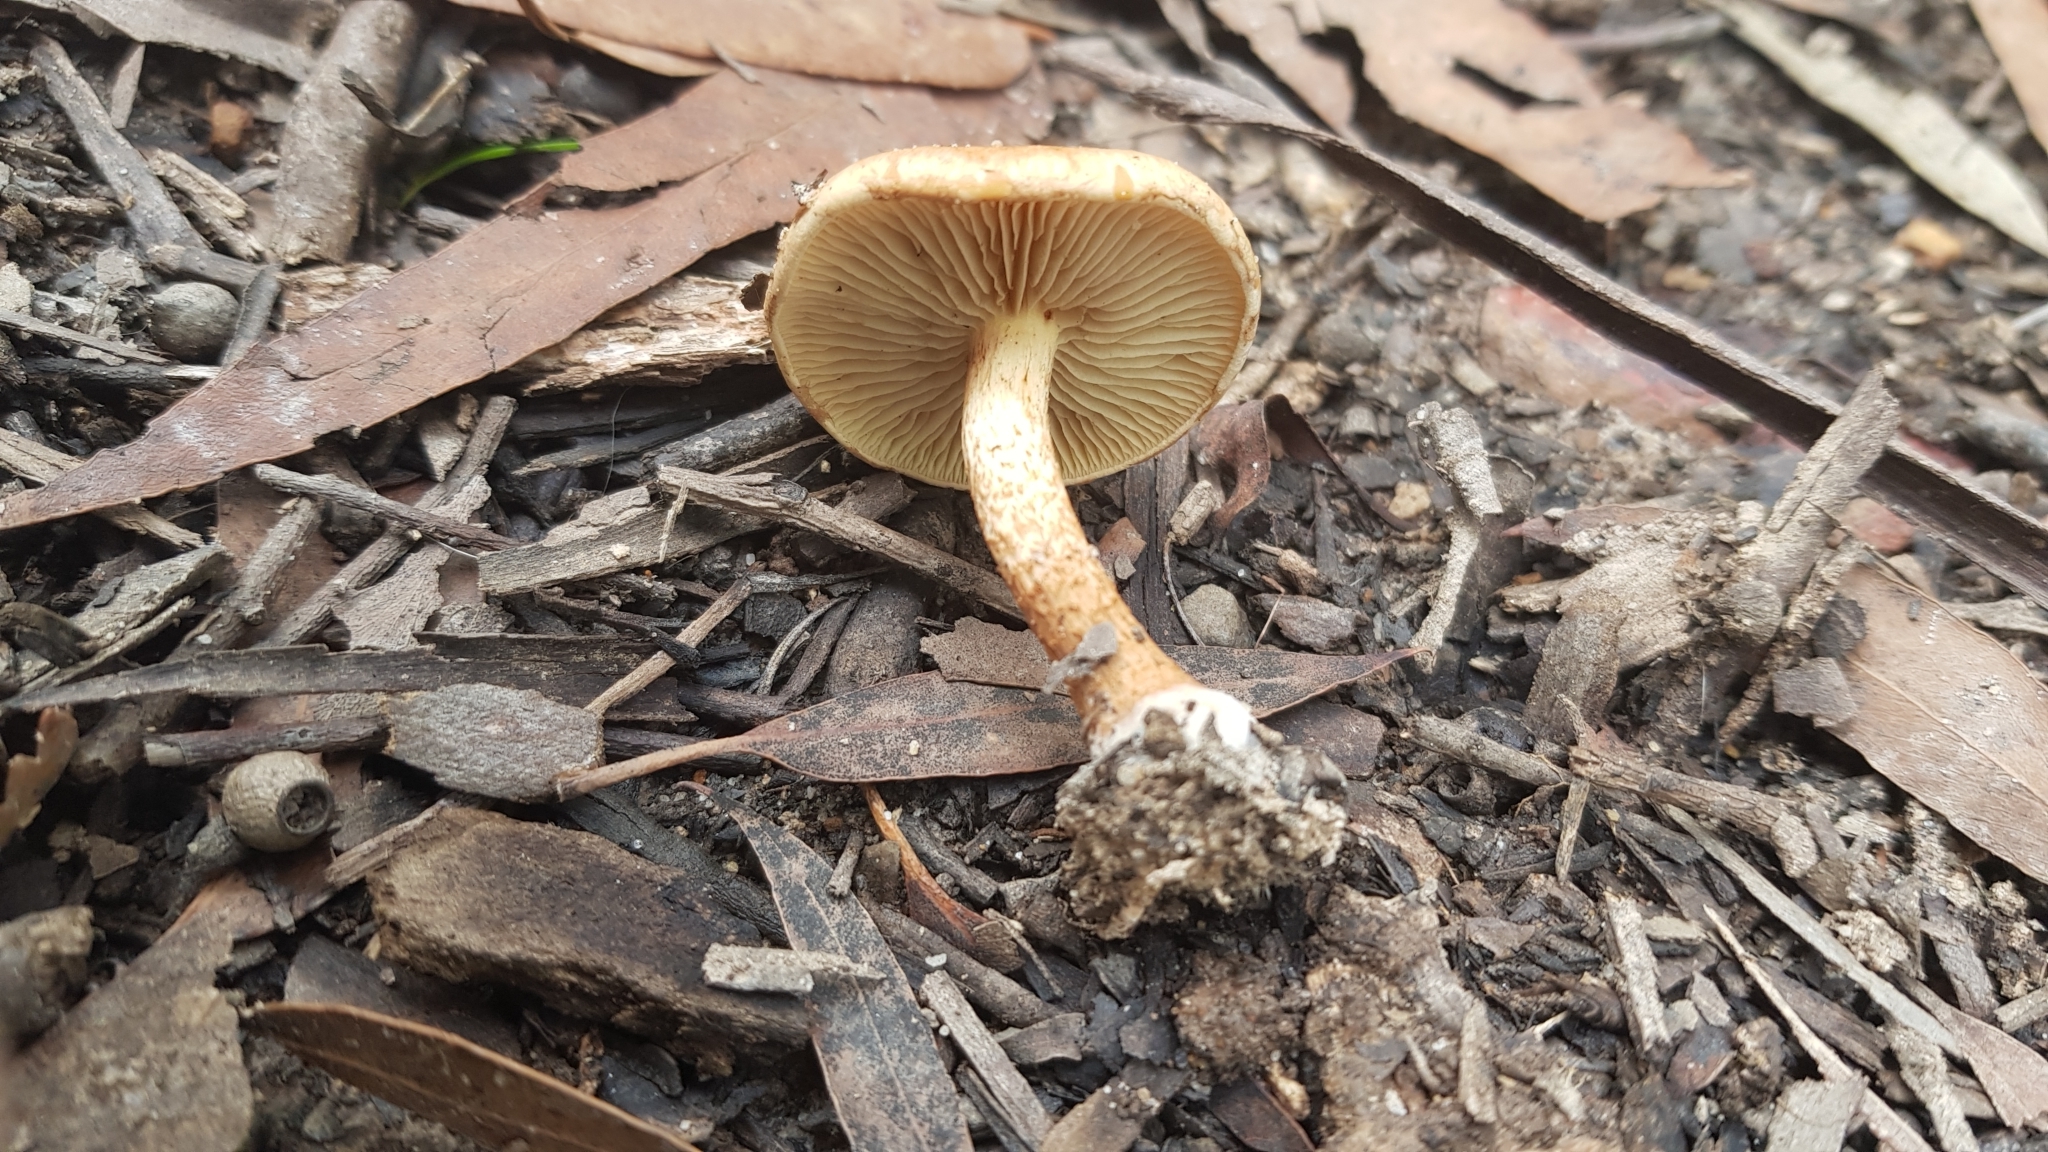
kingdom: Fungi
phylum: Basidiomycota
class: Agaricomycetes
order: Agaricales
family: Strophariaceae
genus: Pholiota
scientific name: Pholiota communis
